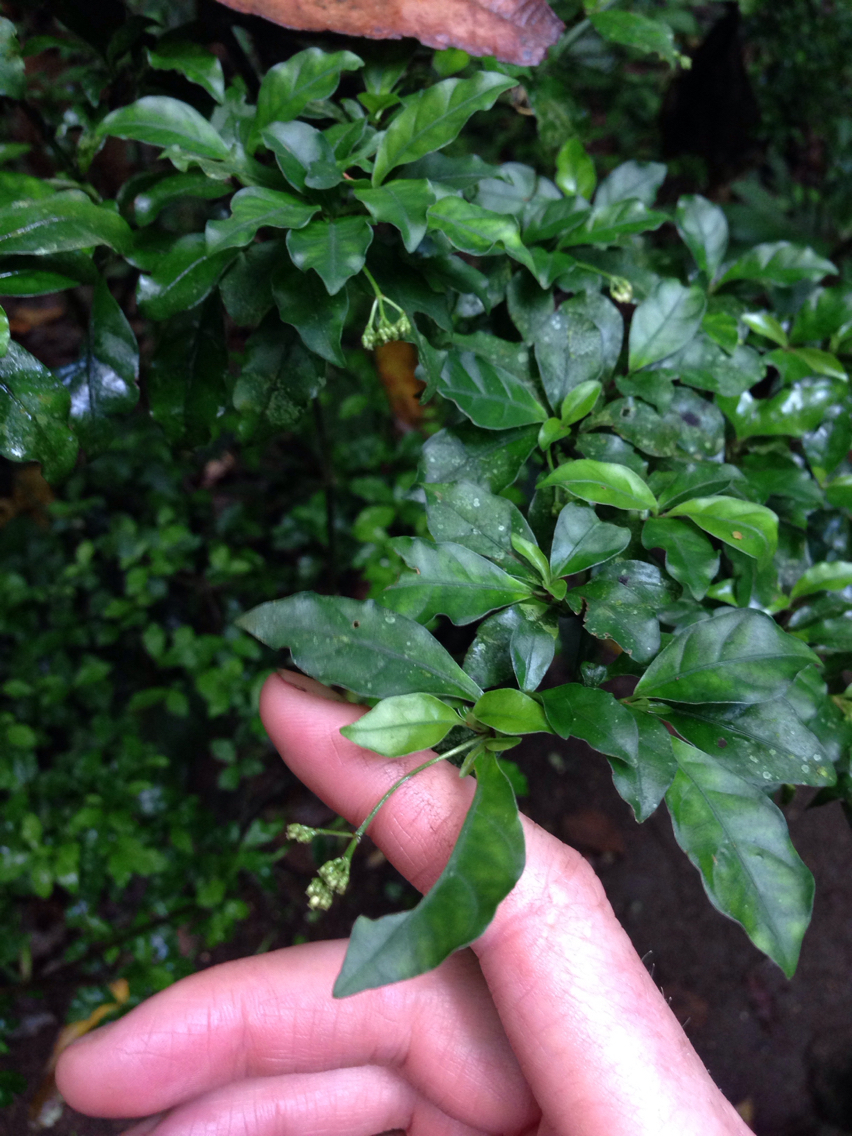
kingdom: Plantae
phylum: Tracheophyta
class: Magnoliopsida
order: Gentianales
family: Rubiaceae
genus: Psychotria
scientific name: Psychotria biaristata
